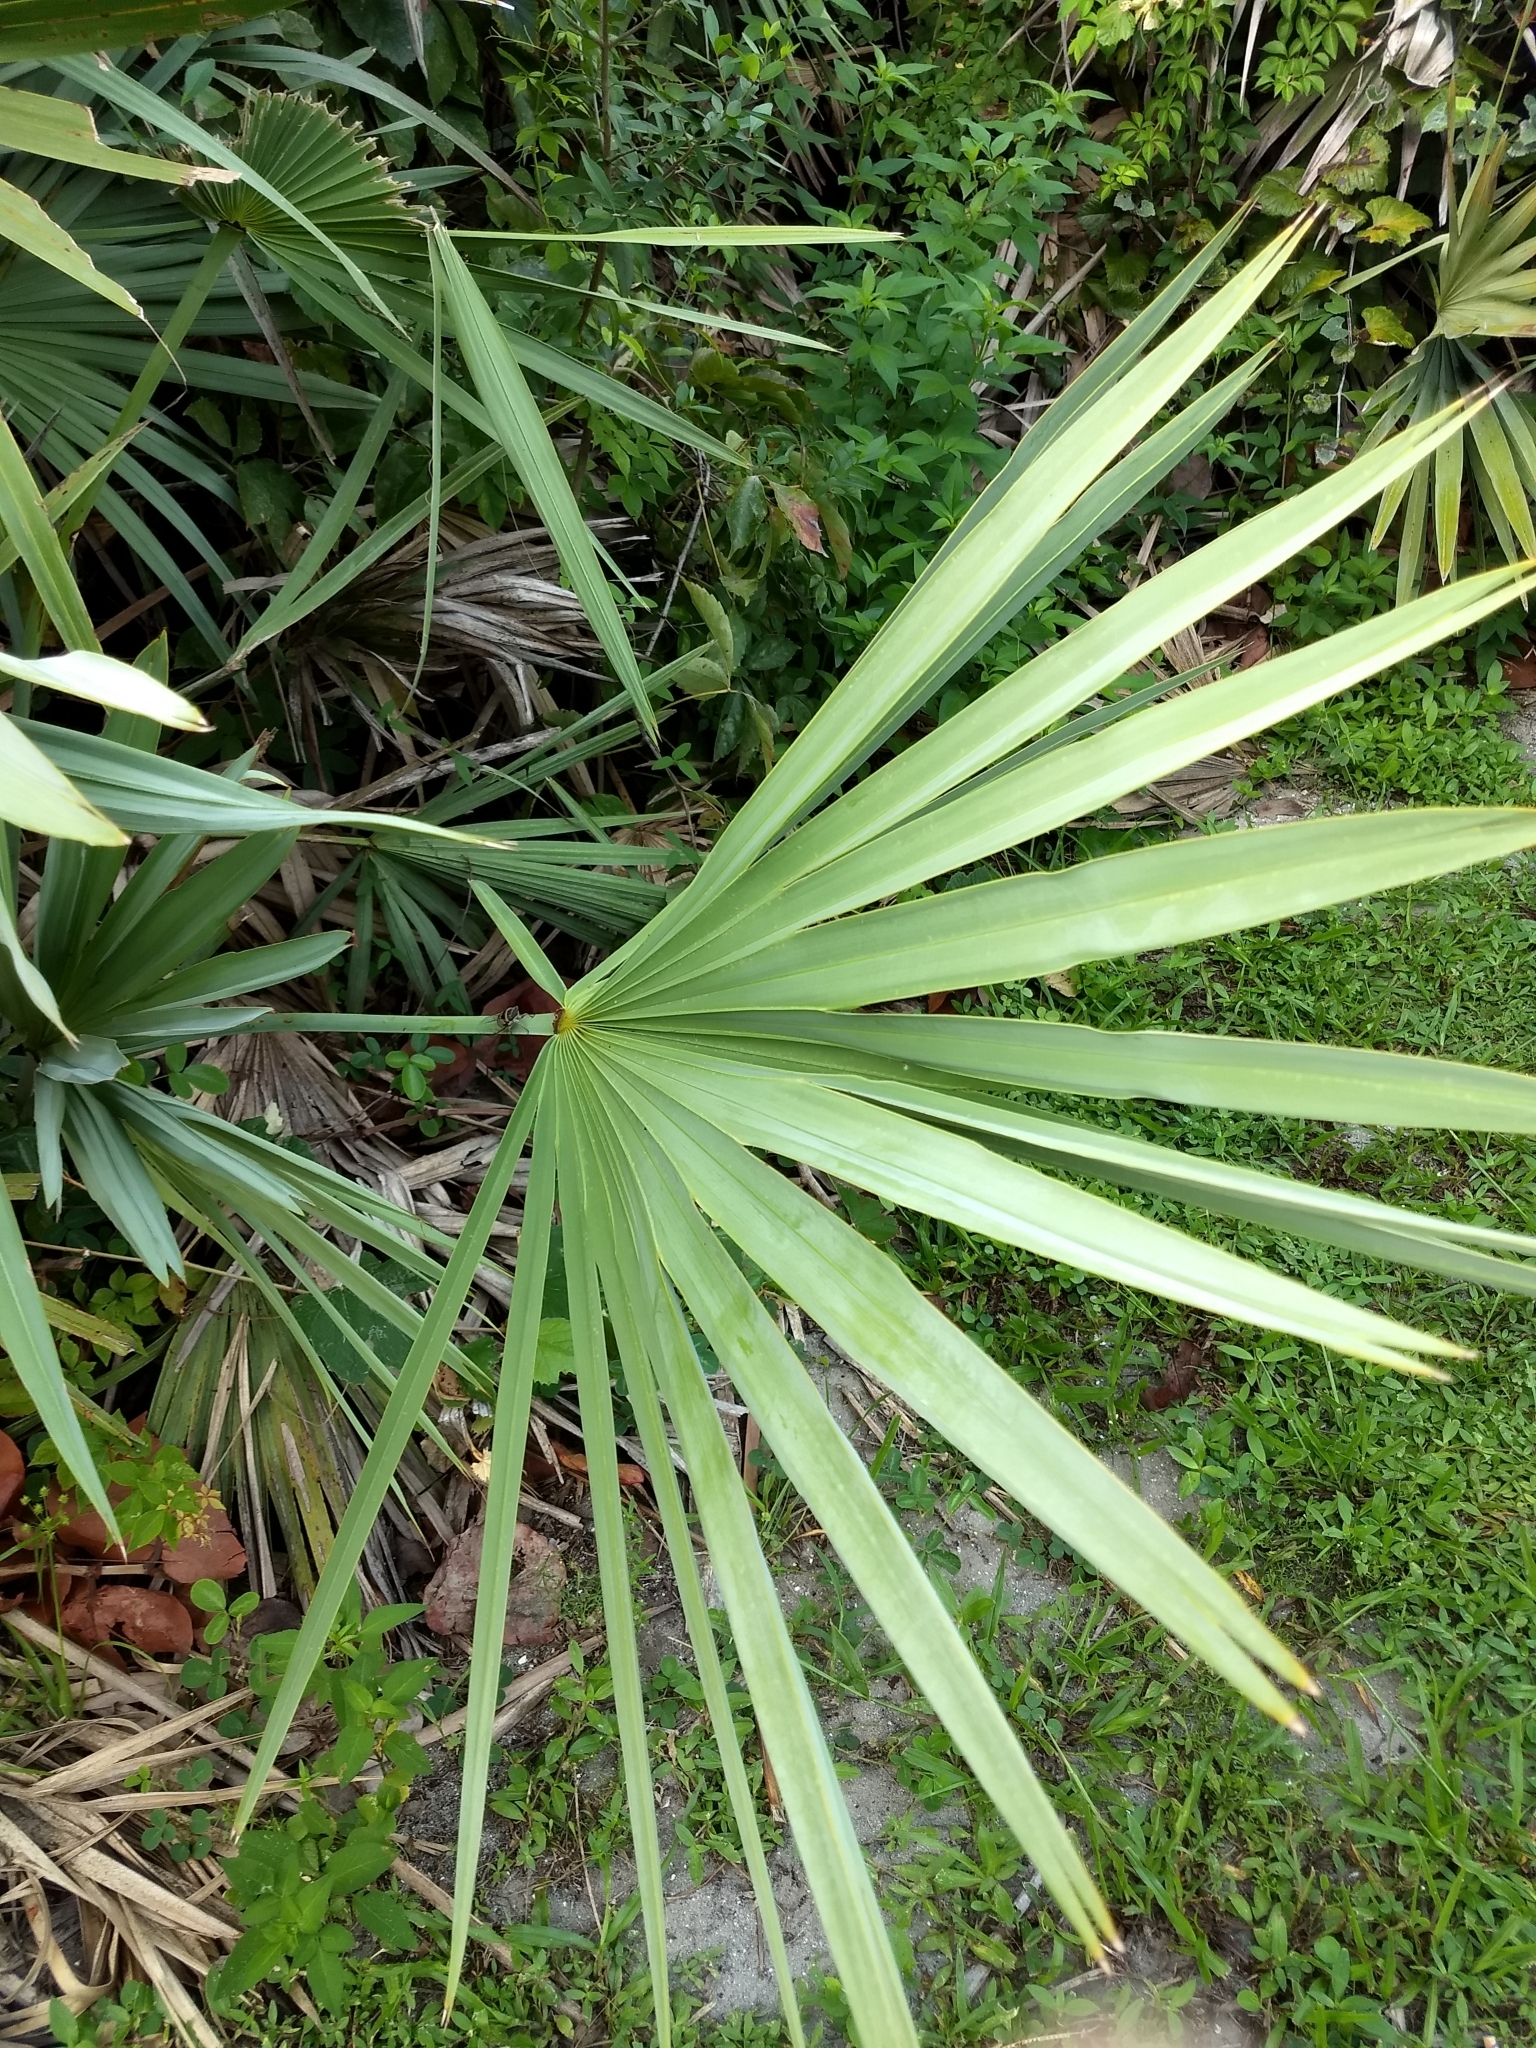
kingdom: Plantae
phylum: Tracheophyta
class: Liliopsida
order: Arecales
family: Arecaceae
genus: Serenoa
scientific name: Serenoa repens
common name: Saw-palmetto
